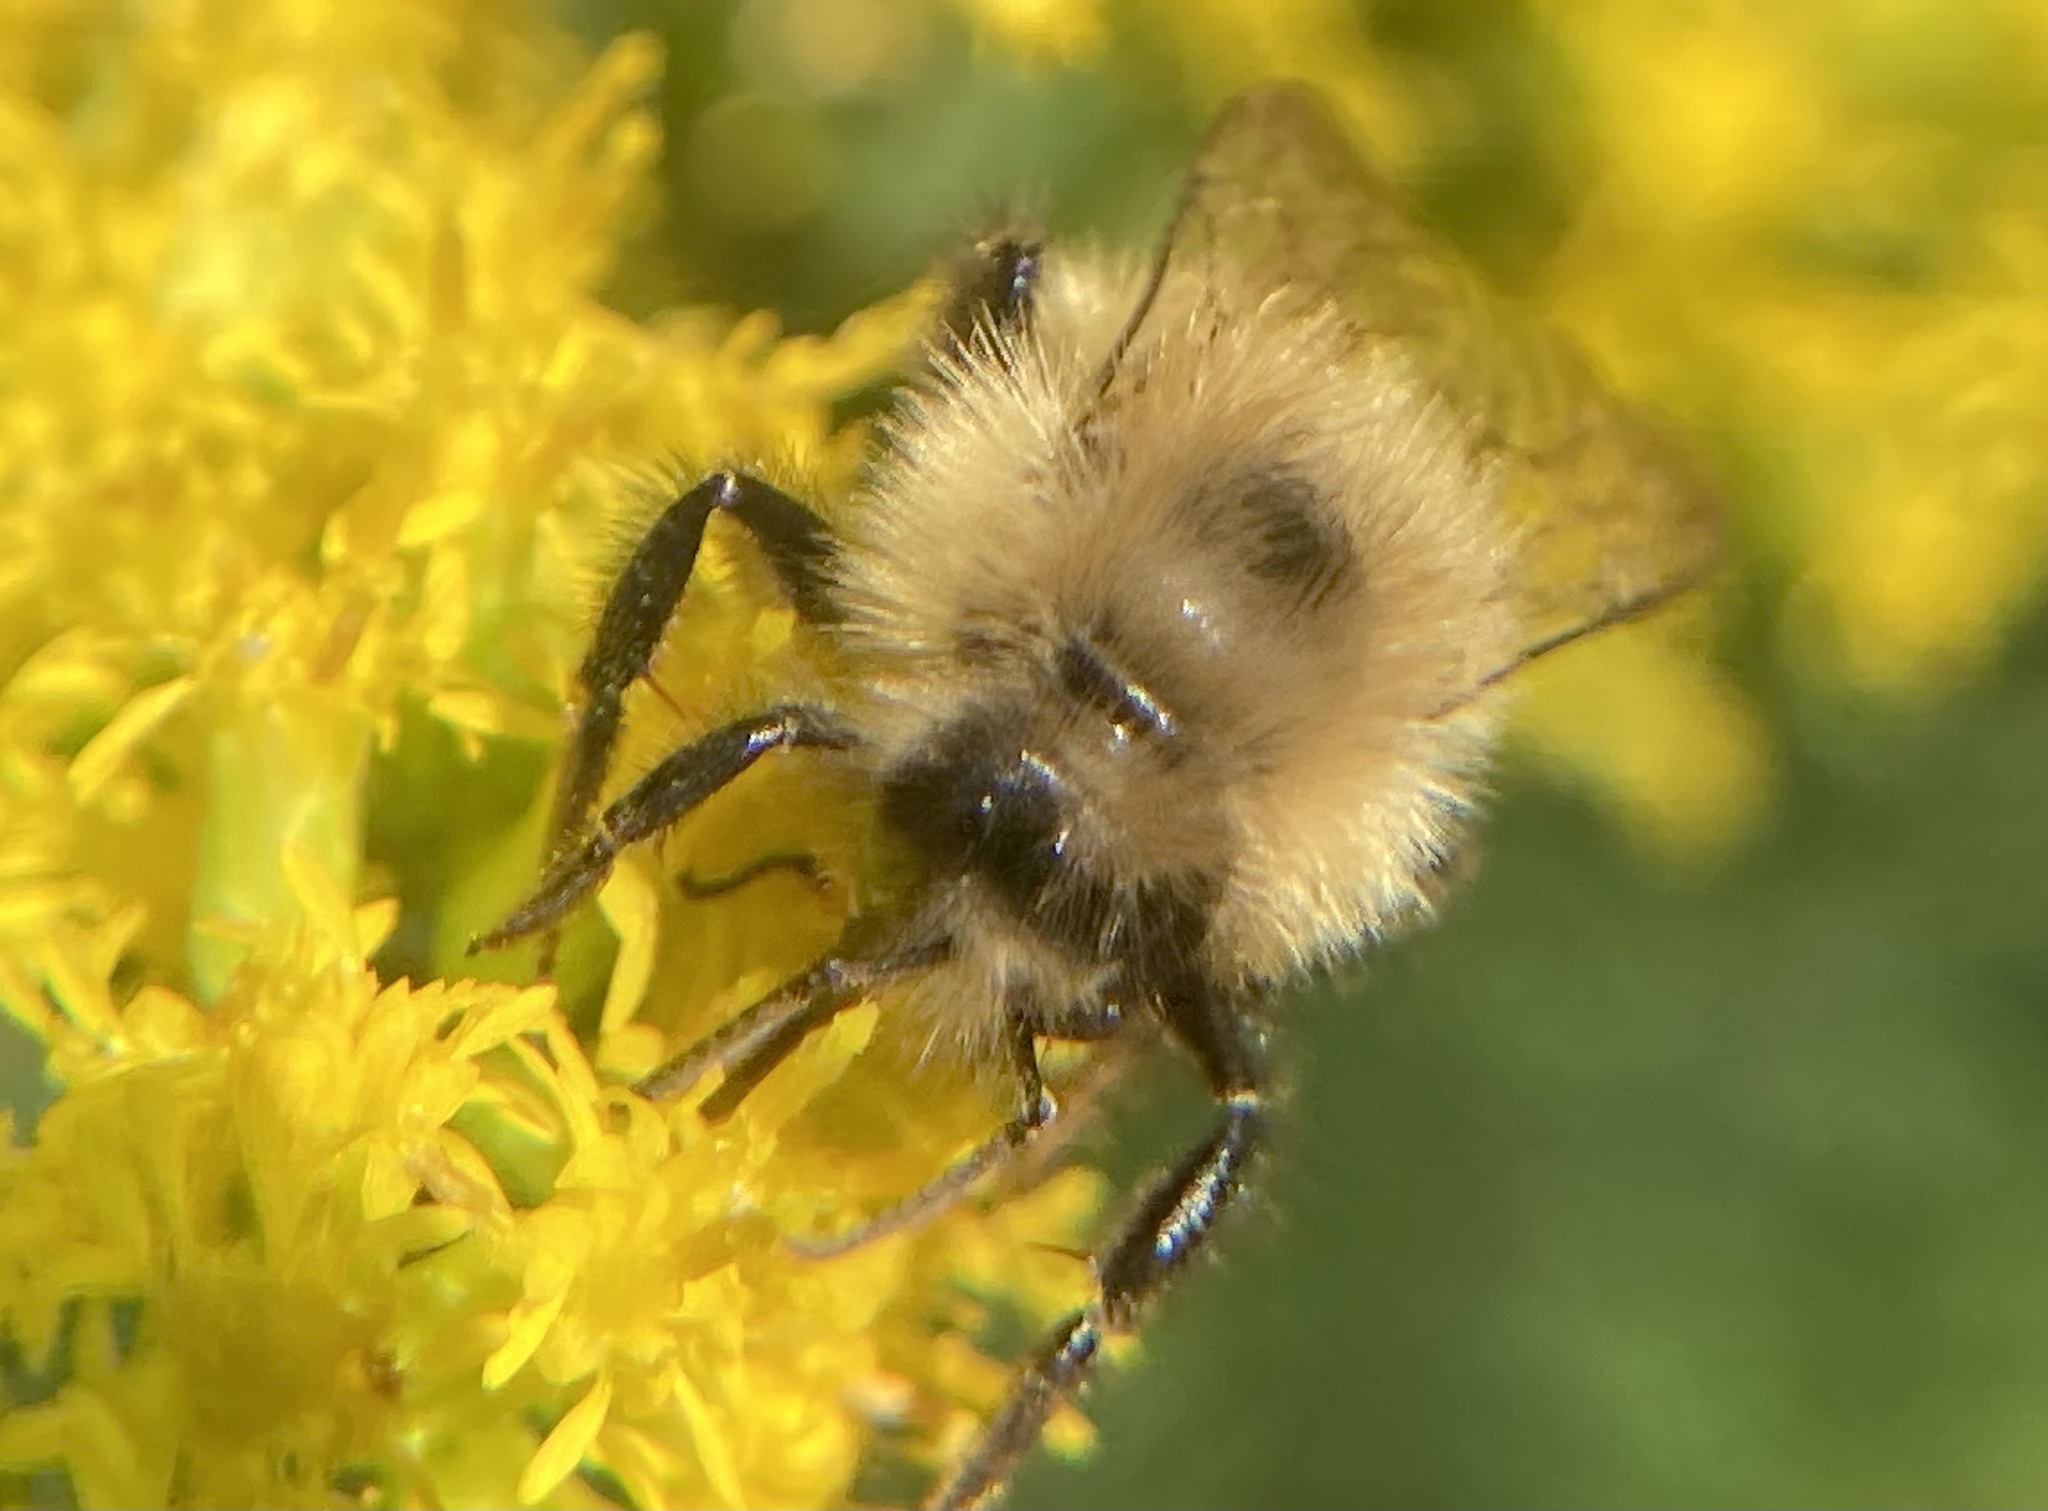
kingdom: Animalia
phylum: Arthropoda
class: Insecta
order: Hymenoptera
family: Apidae
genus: Bombus
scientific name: Bombus vagans
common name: Half-black bumble bee
